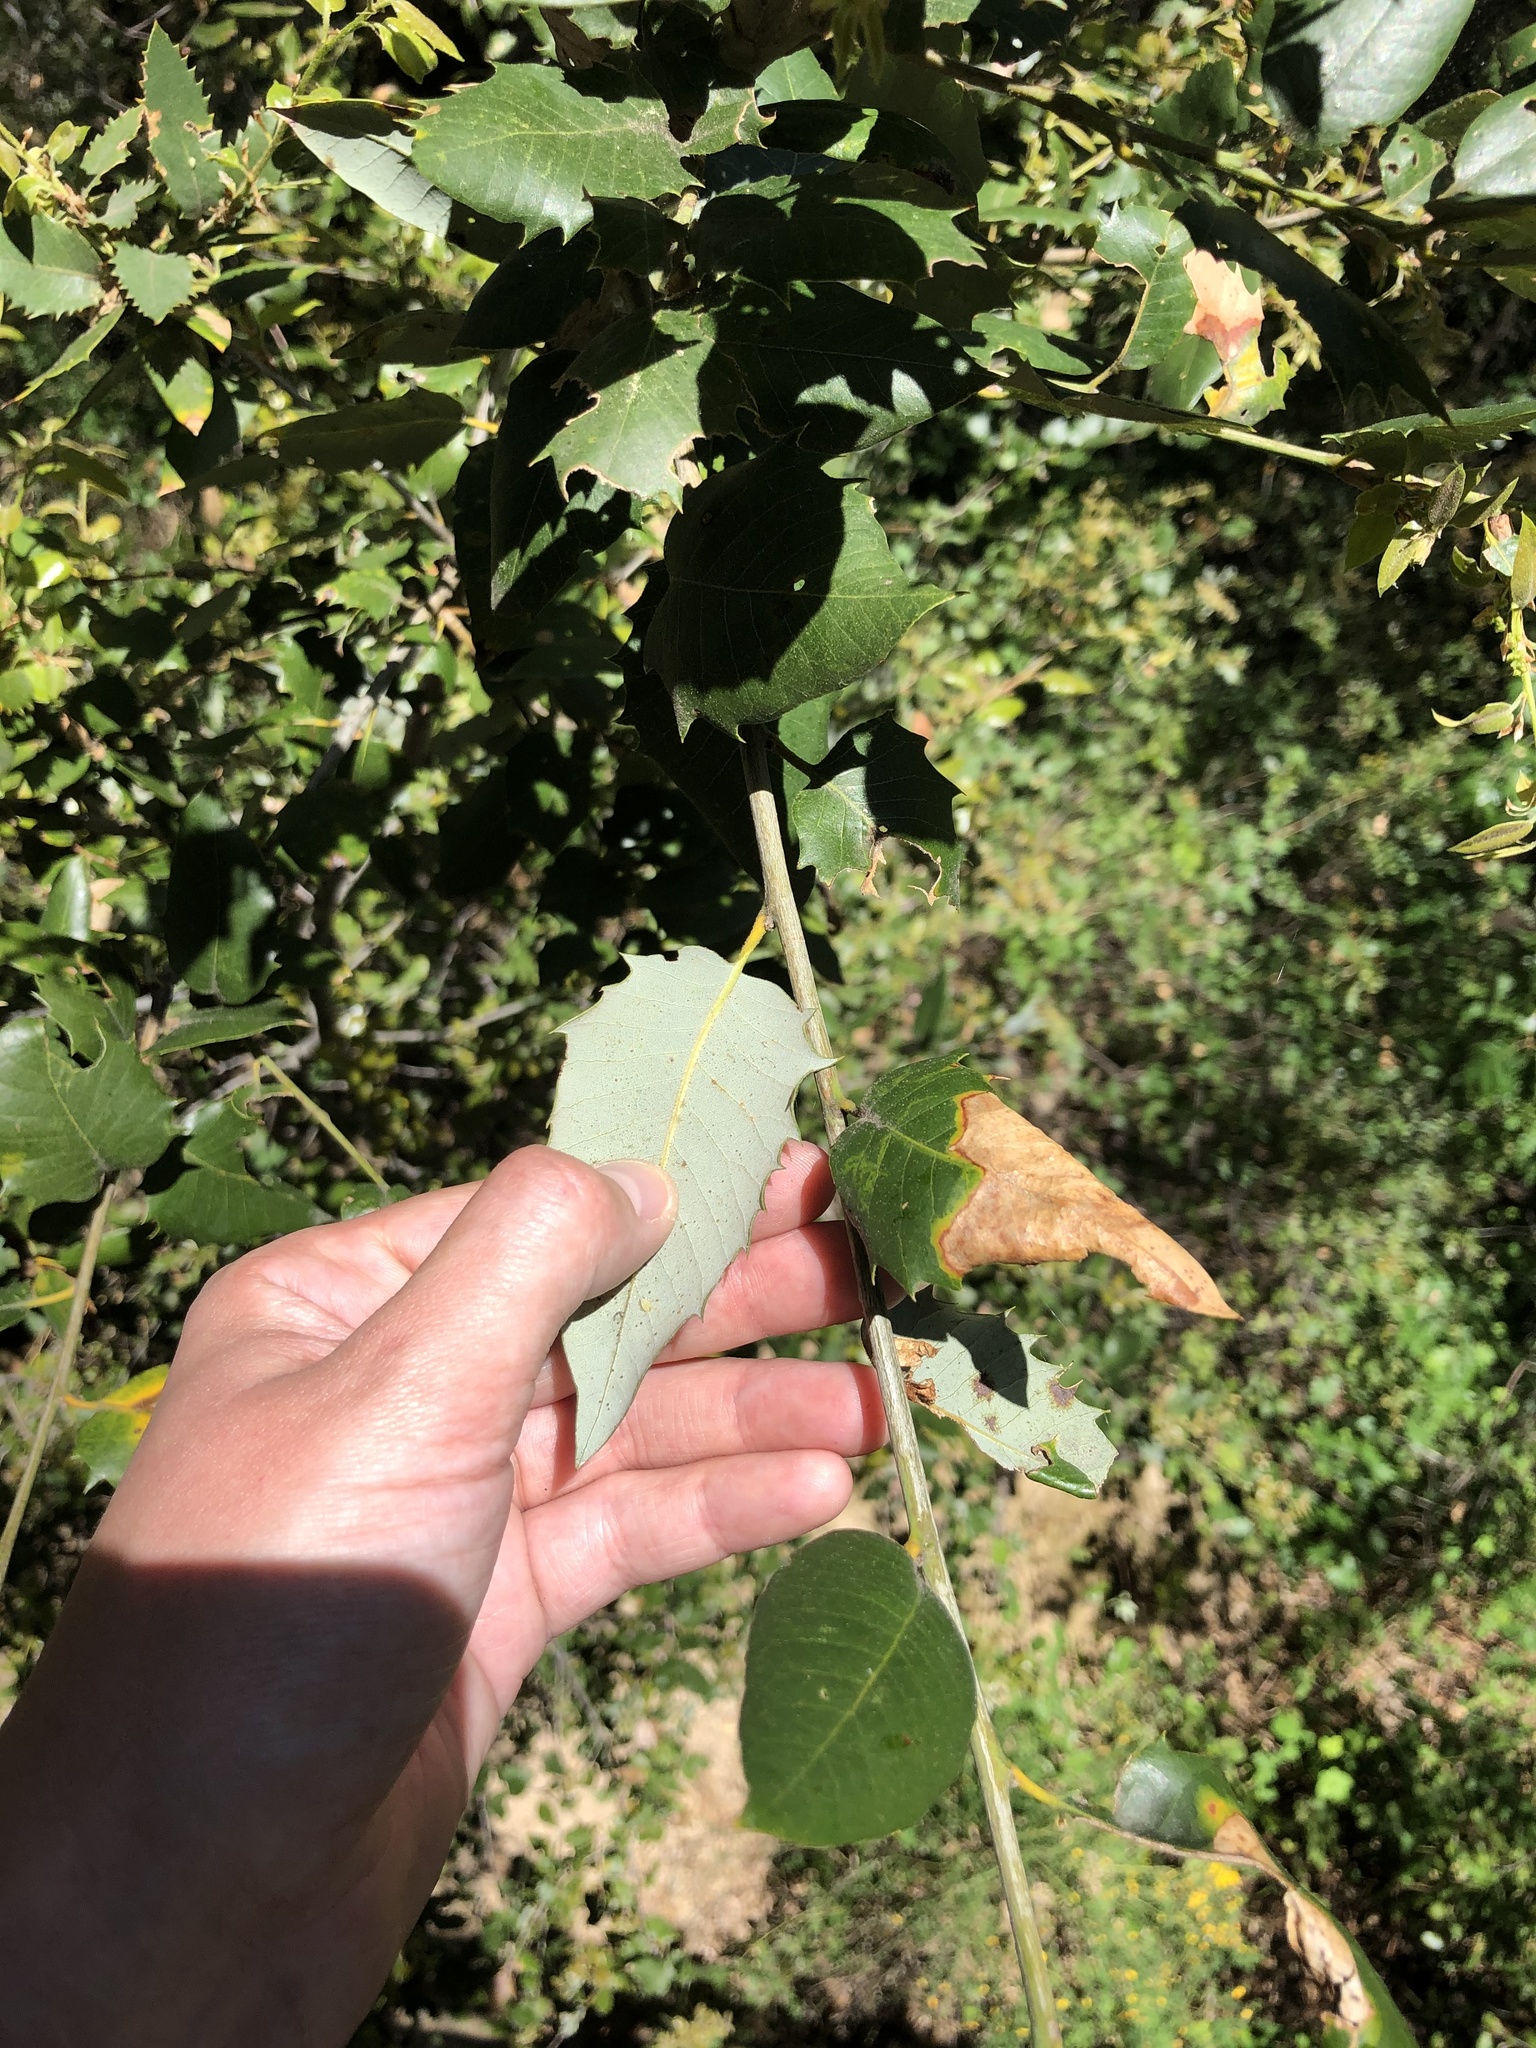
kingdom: Plantae
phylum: Tracheophyta
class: Magnoliopsida
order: Fagales
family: Fagaceae
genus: Quercus
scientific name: Quercus chrysolepis
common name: Canyon live oak
